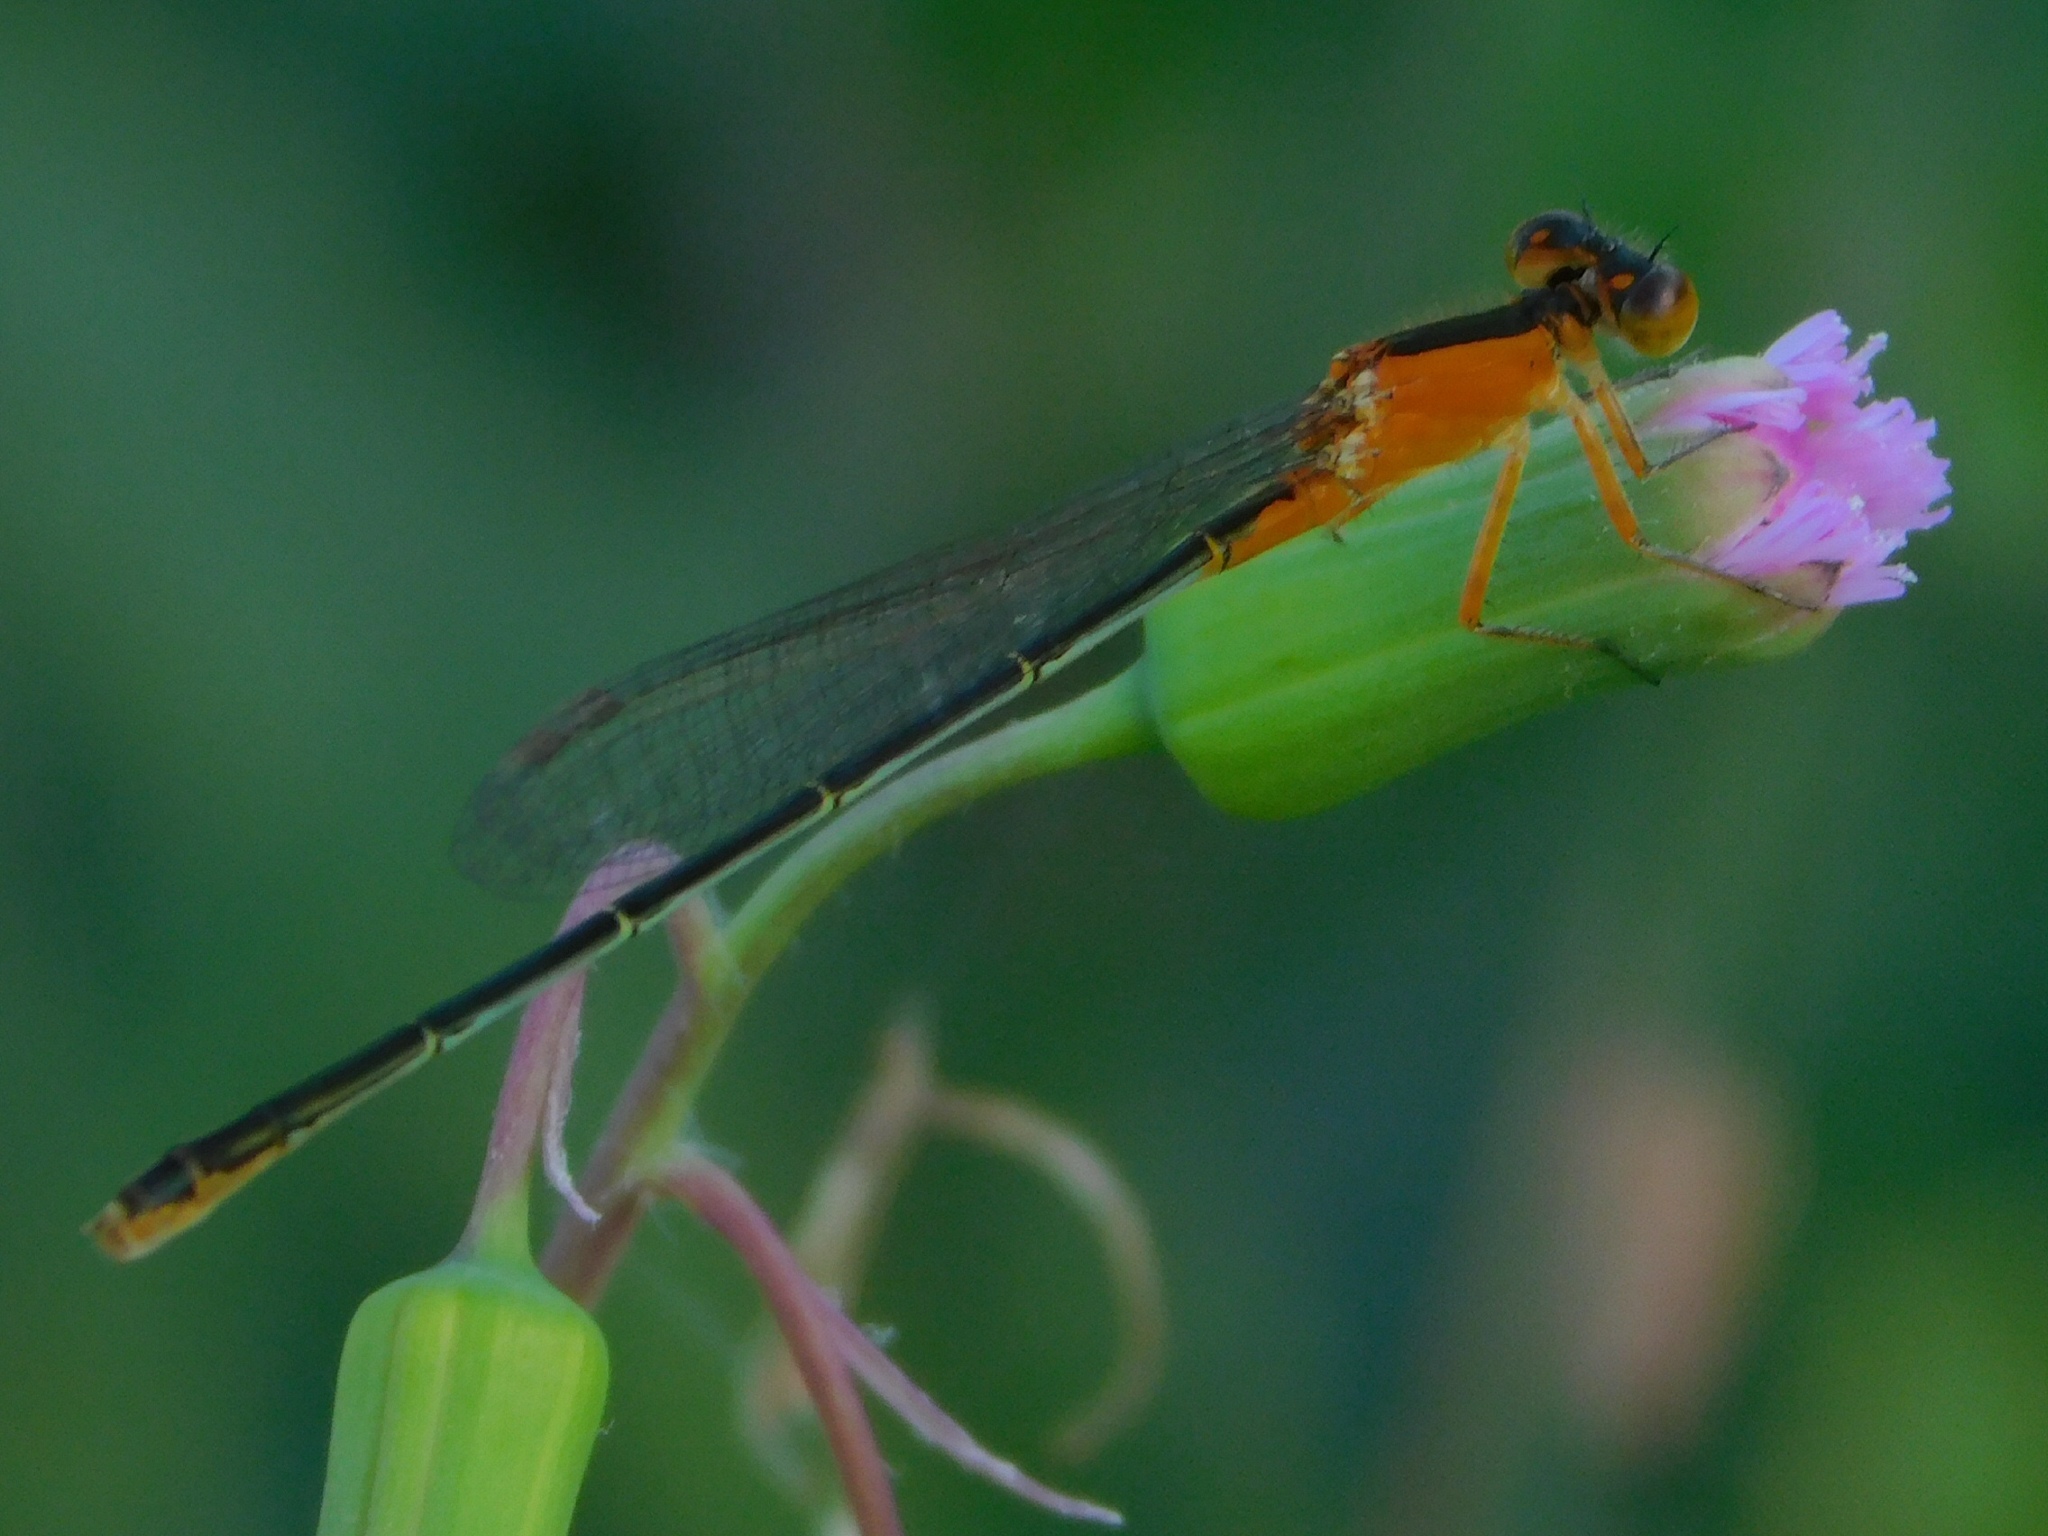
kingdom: Animalia
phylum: Arthropoda
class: Insecta
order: Odonata
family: Coenagrionidae
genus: Ischnura
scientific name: Ischnura ramburii
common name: Rambur's forktail
